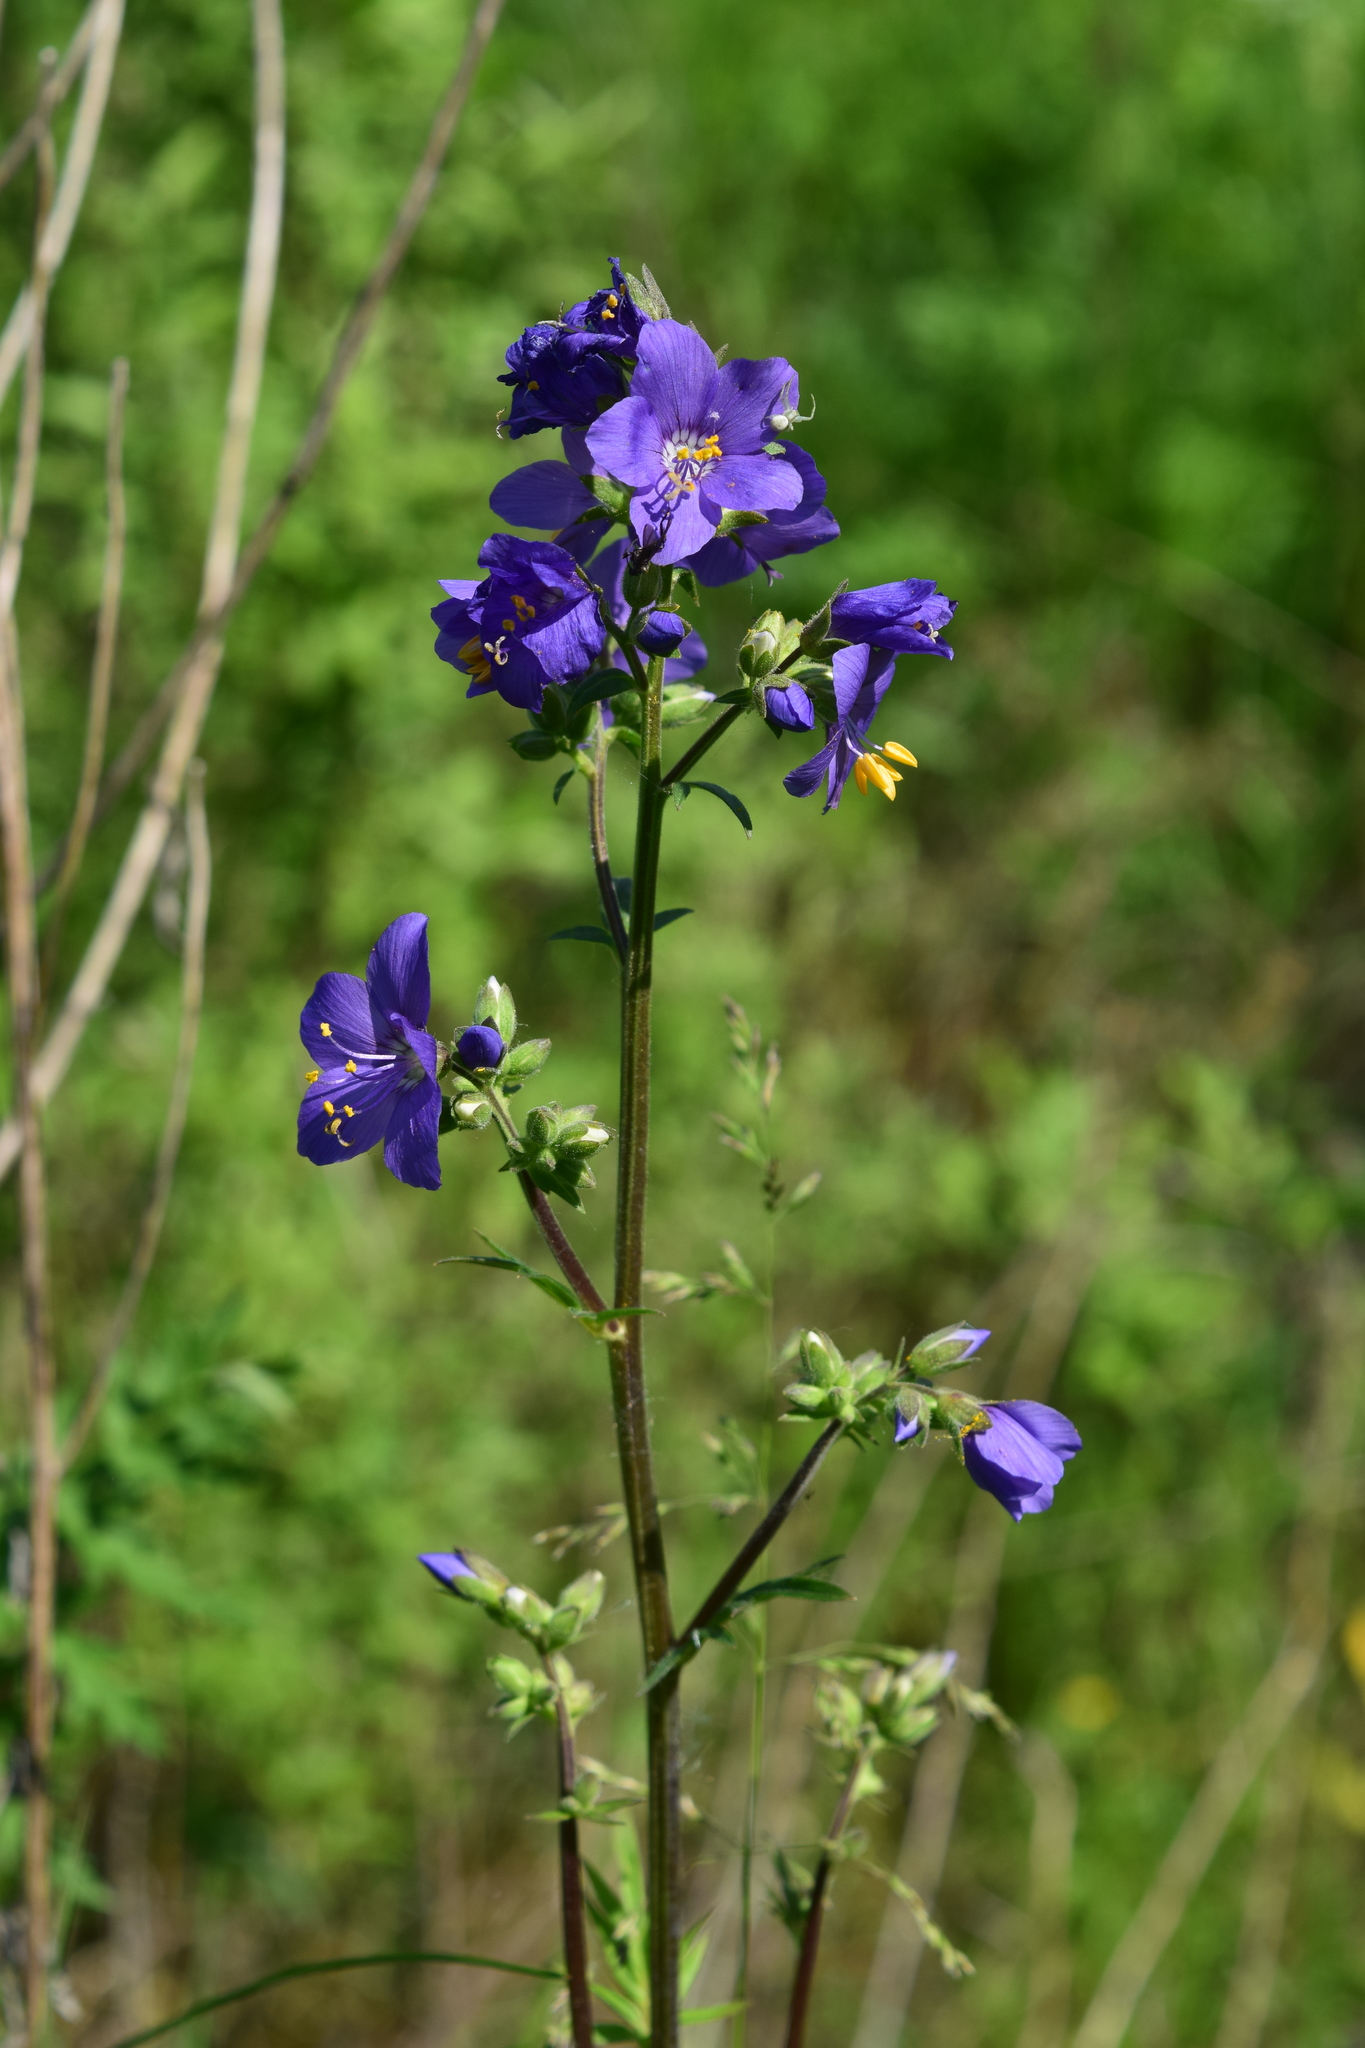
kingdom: Plantae
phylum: Tracheophyta
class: Magnoliopsida
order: Ericales
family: Polemoniaceae
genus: Polemonium
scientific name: Polemonium caeruleum
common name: Jacob's-ladder
